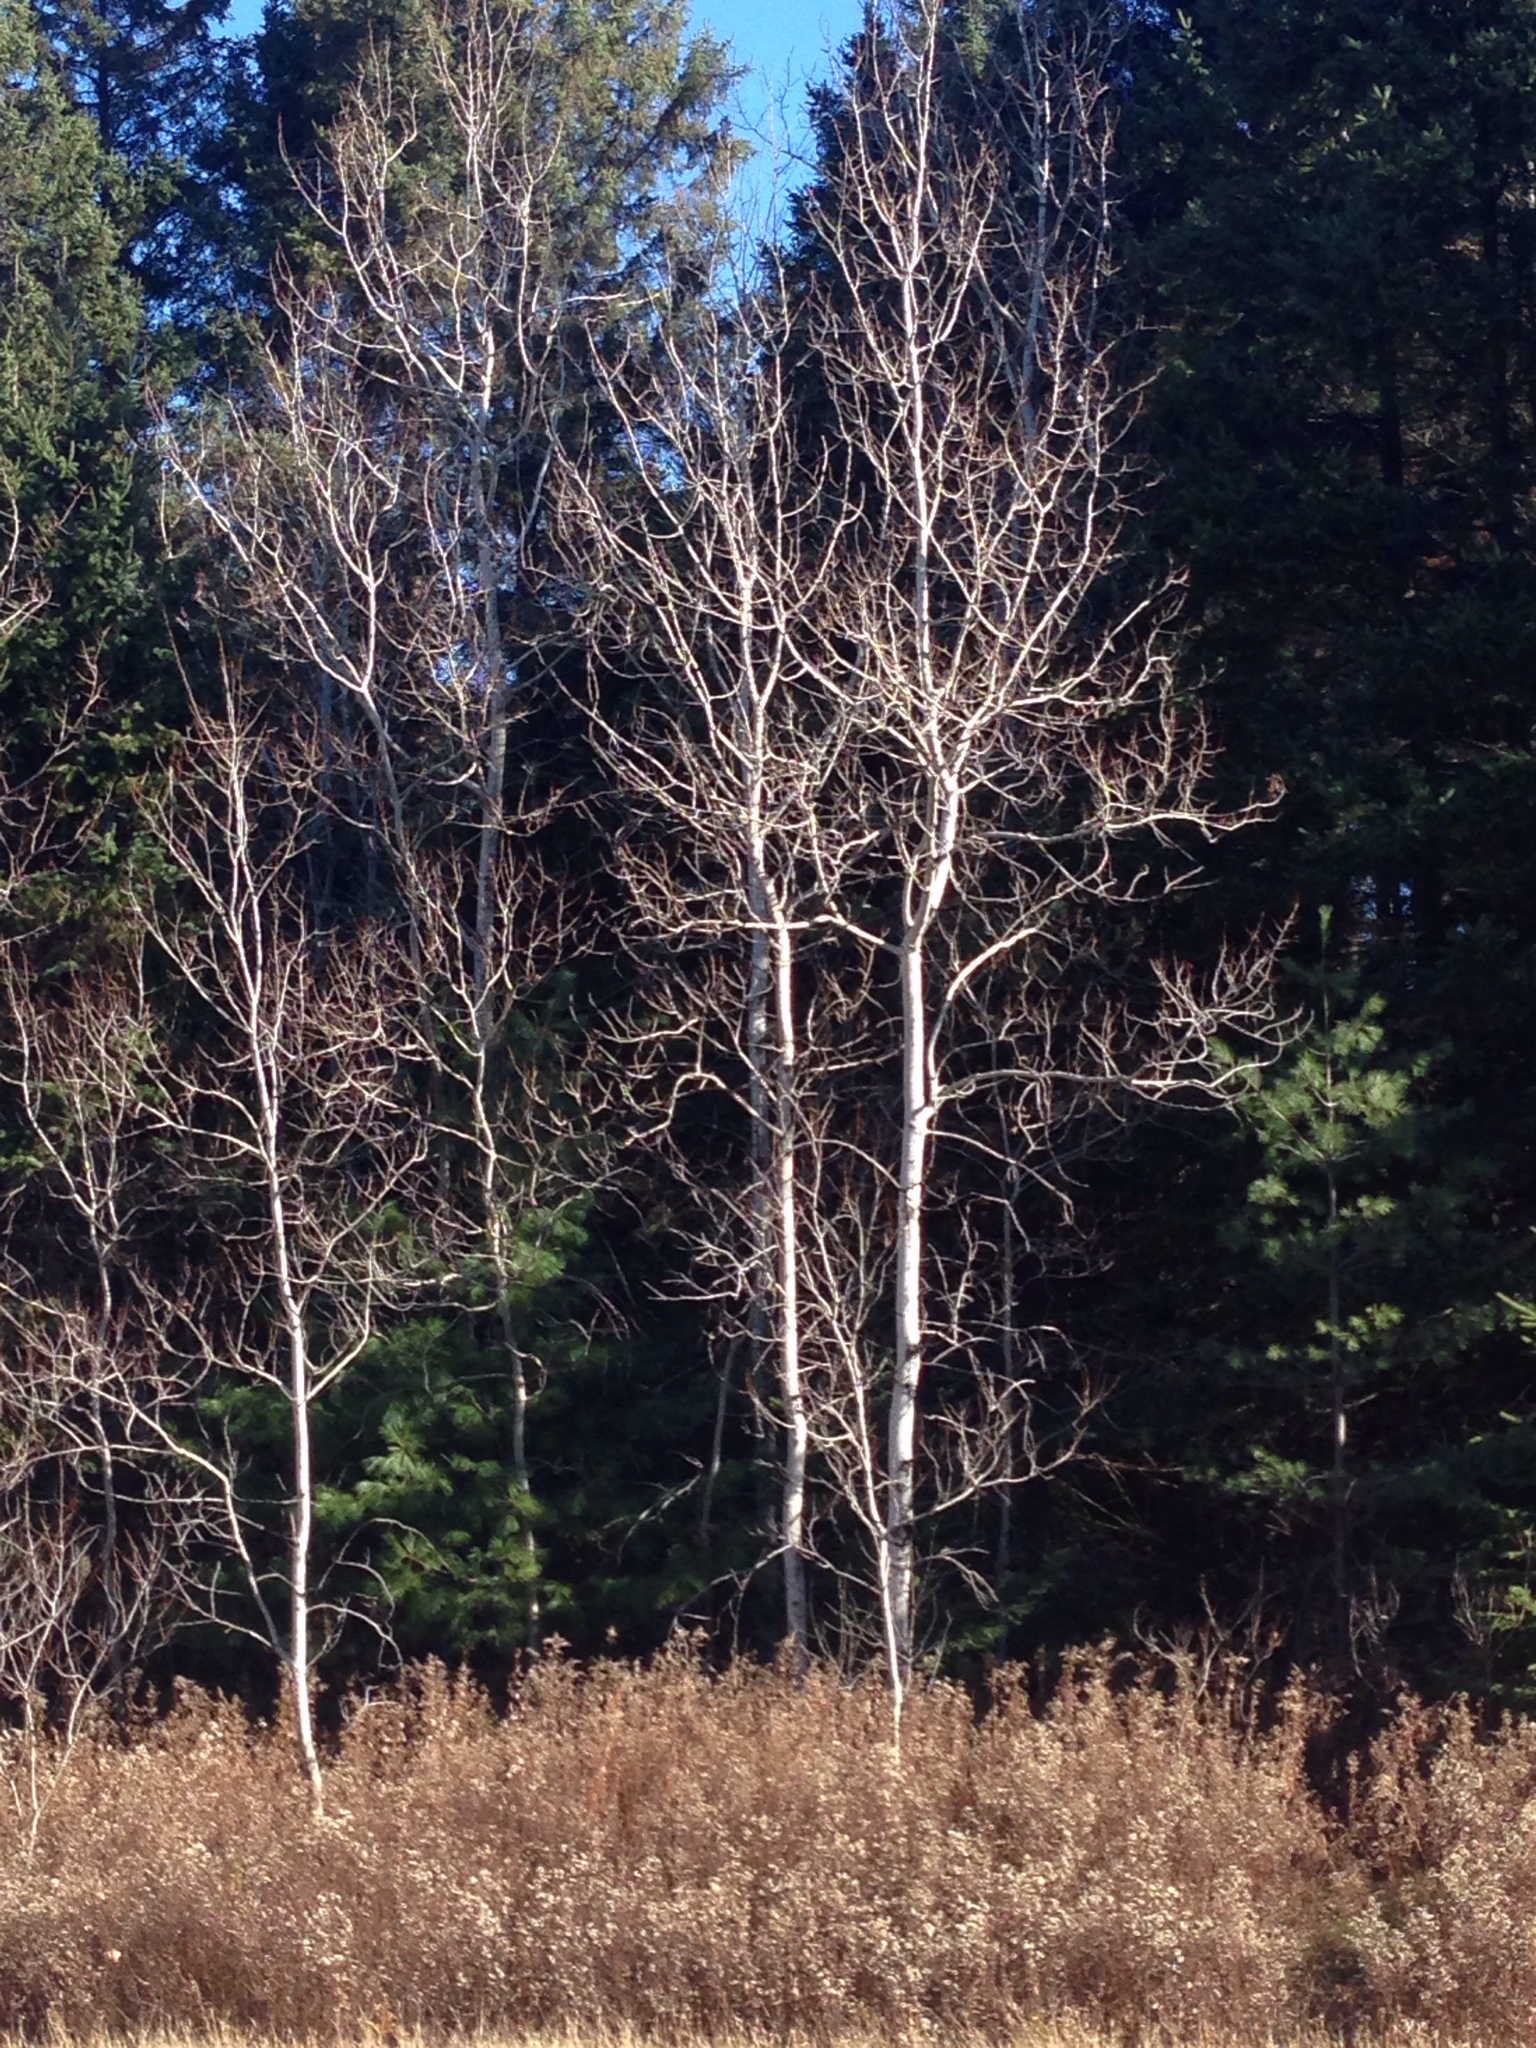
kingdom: Plantae
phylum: Tracheophyta
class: Magnoliopsida
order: Malpighiales
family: Salicaceae
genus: Populus
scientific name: Populus tremuloides
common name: Quaking aspen
